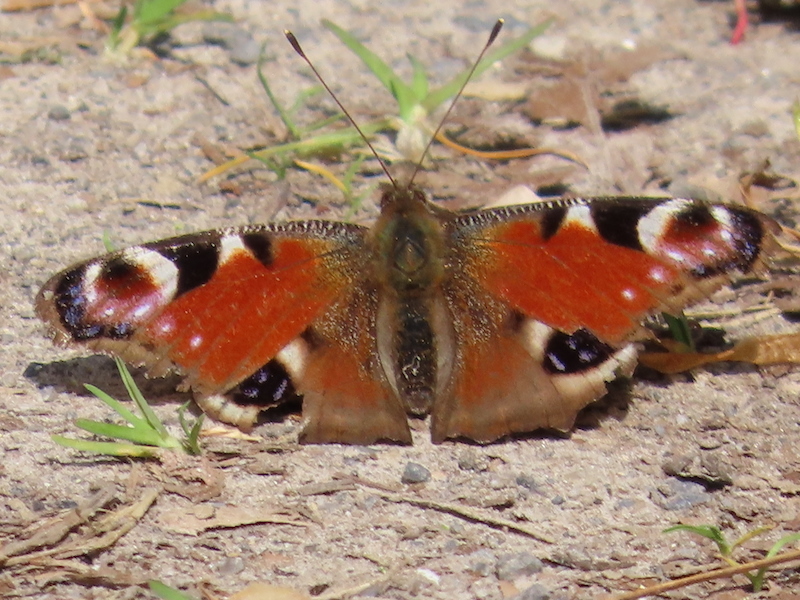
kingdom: Animalia
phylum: Arthropoda
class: Insecta
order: Lepidoptera
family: Nymphalidae
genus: Aglais
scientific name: Aglais io
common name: Peacock
